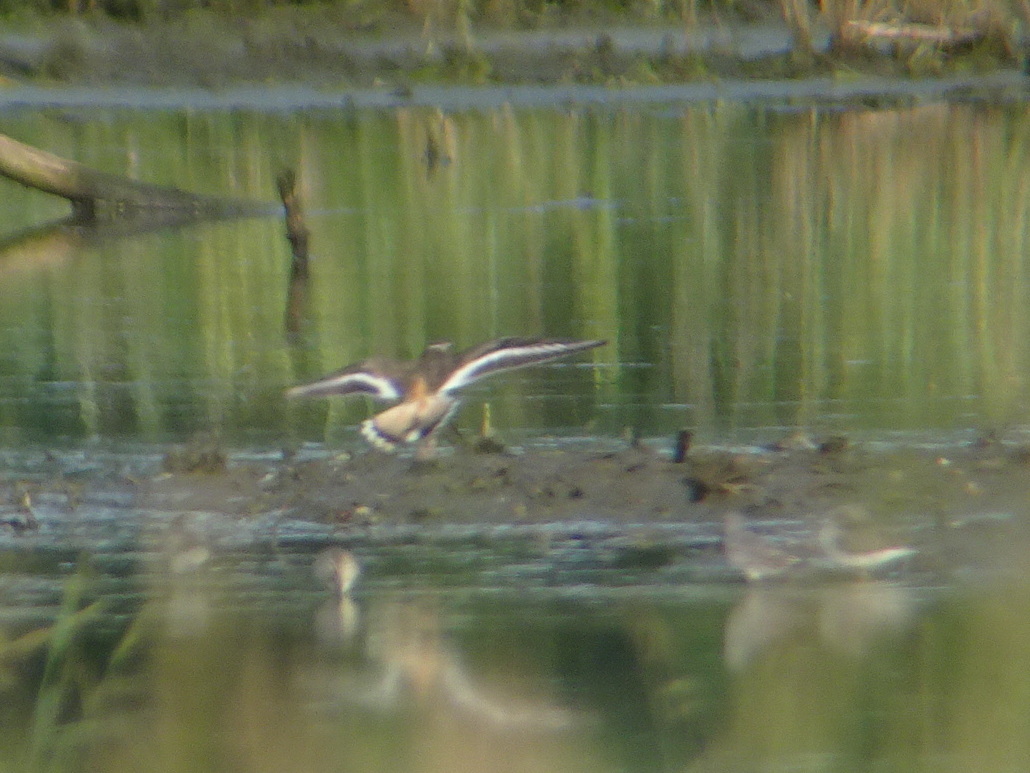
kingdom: Animalia
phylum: Chordata
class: Aves
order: Charadriiformes
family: Charadriidae
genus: Charadrius
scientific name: Charadrius vociferus
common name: Killdeer
